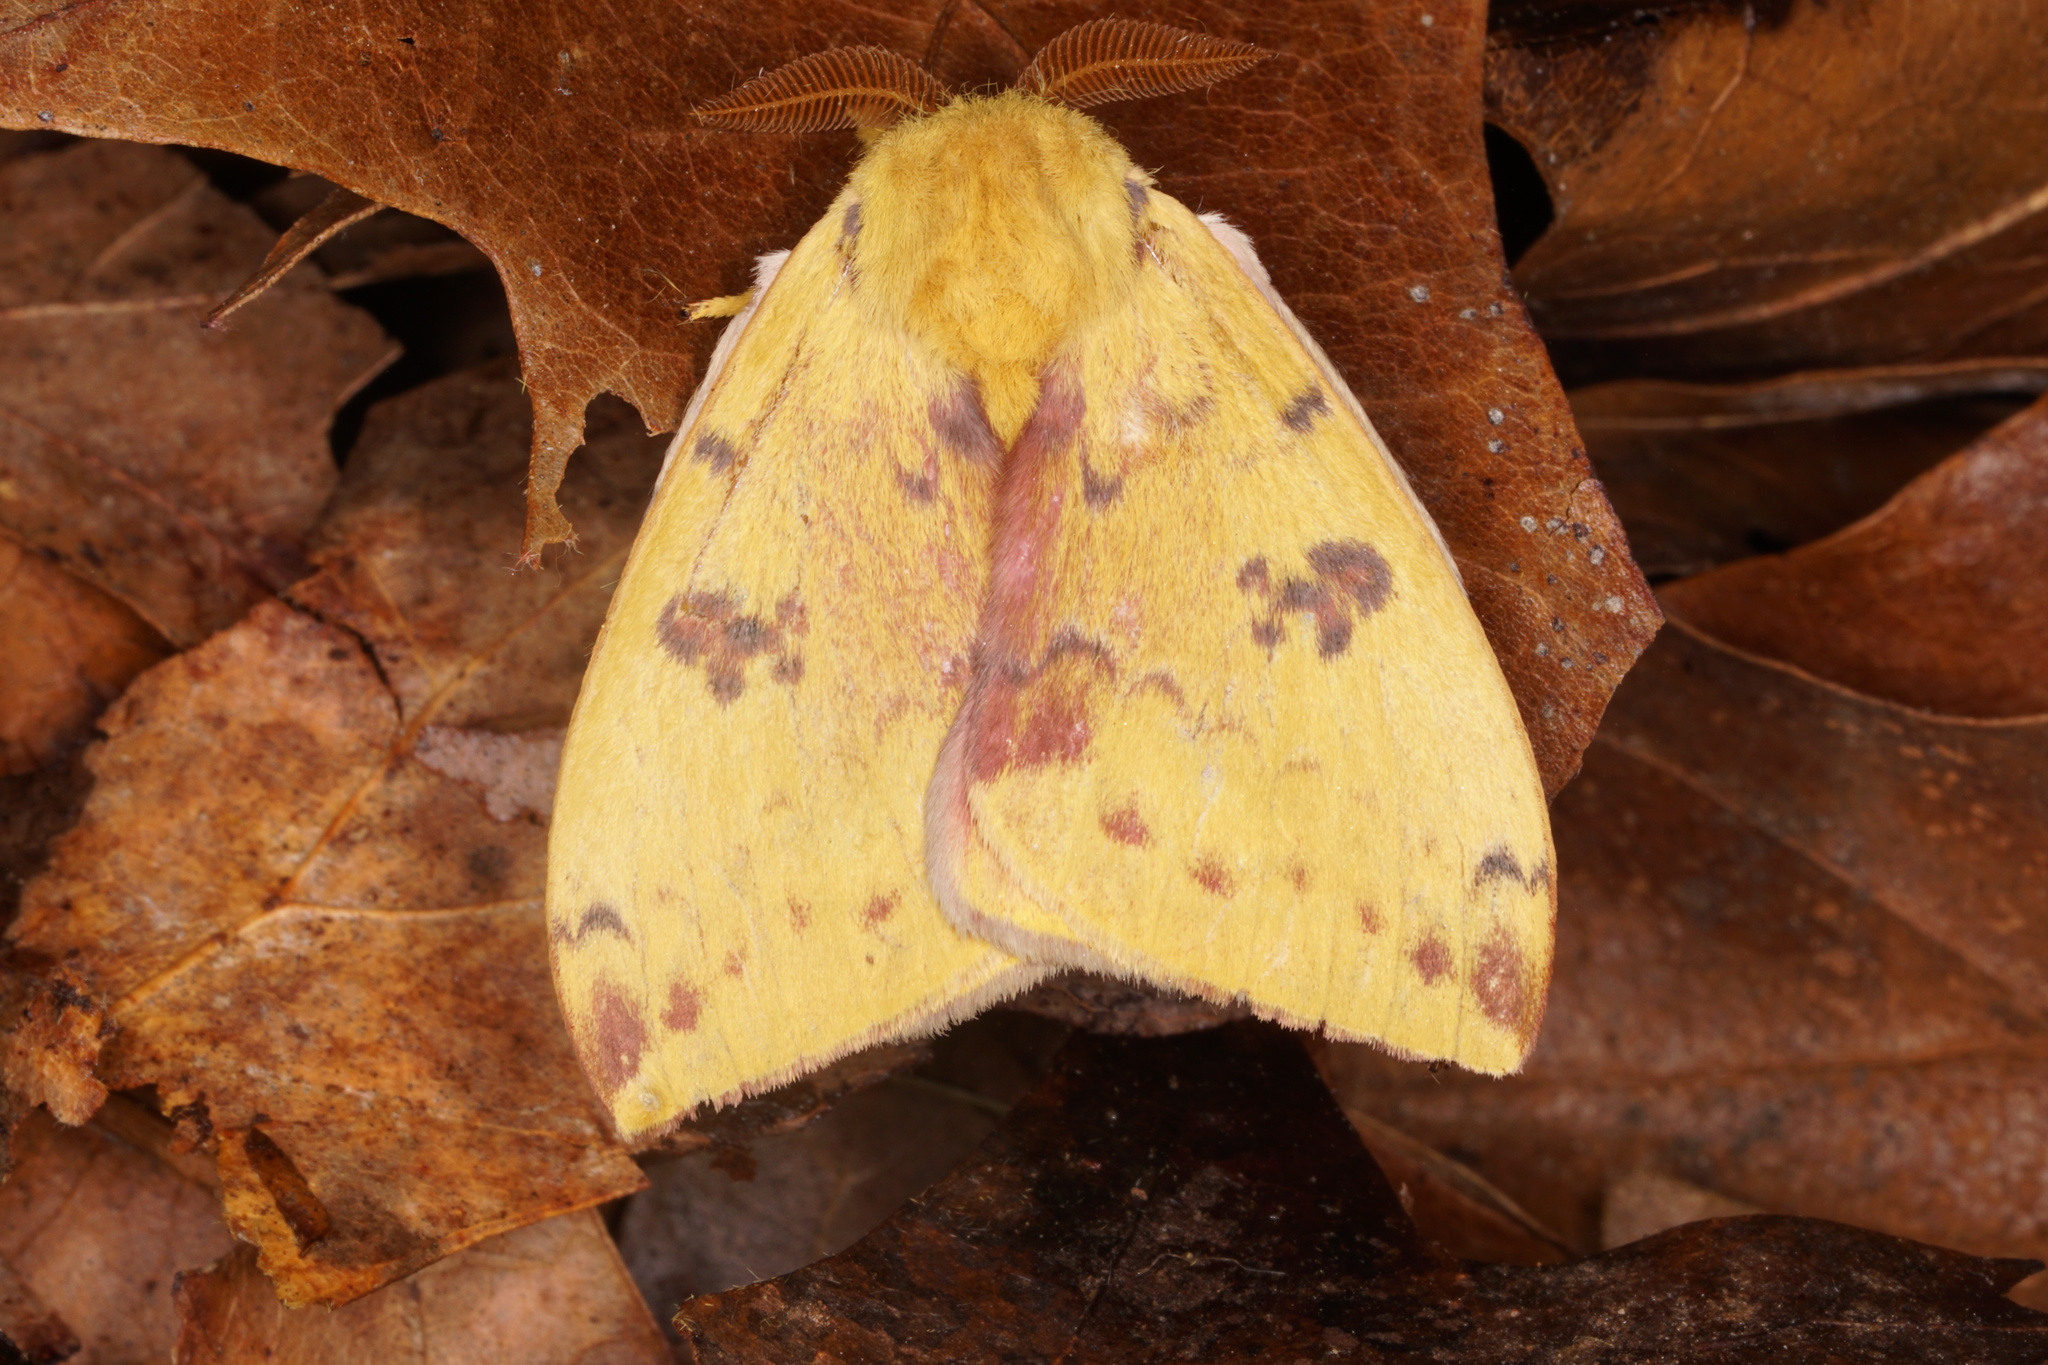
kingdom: Animalia
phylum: Arthropoda
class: Insecta
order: Lepidoptera
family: Saturniidae
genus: Automeris
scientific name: Automeris io
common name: Io moth
